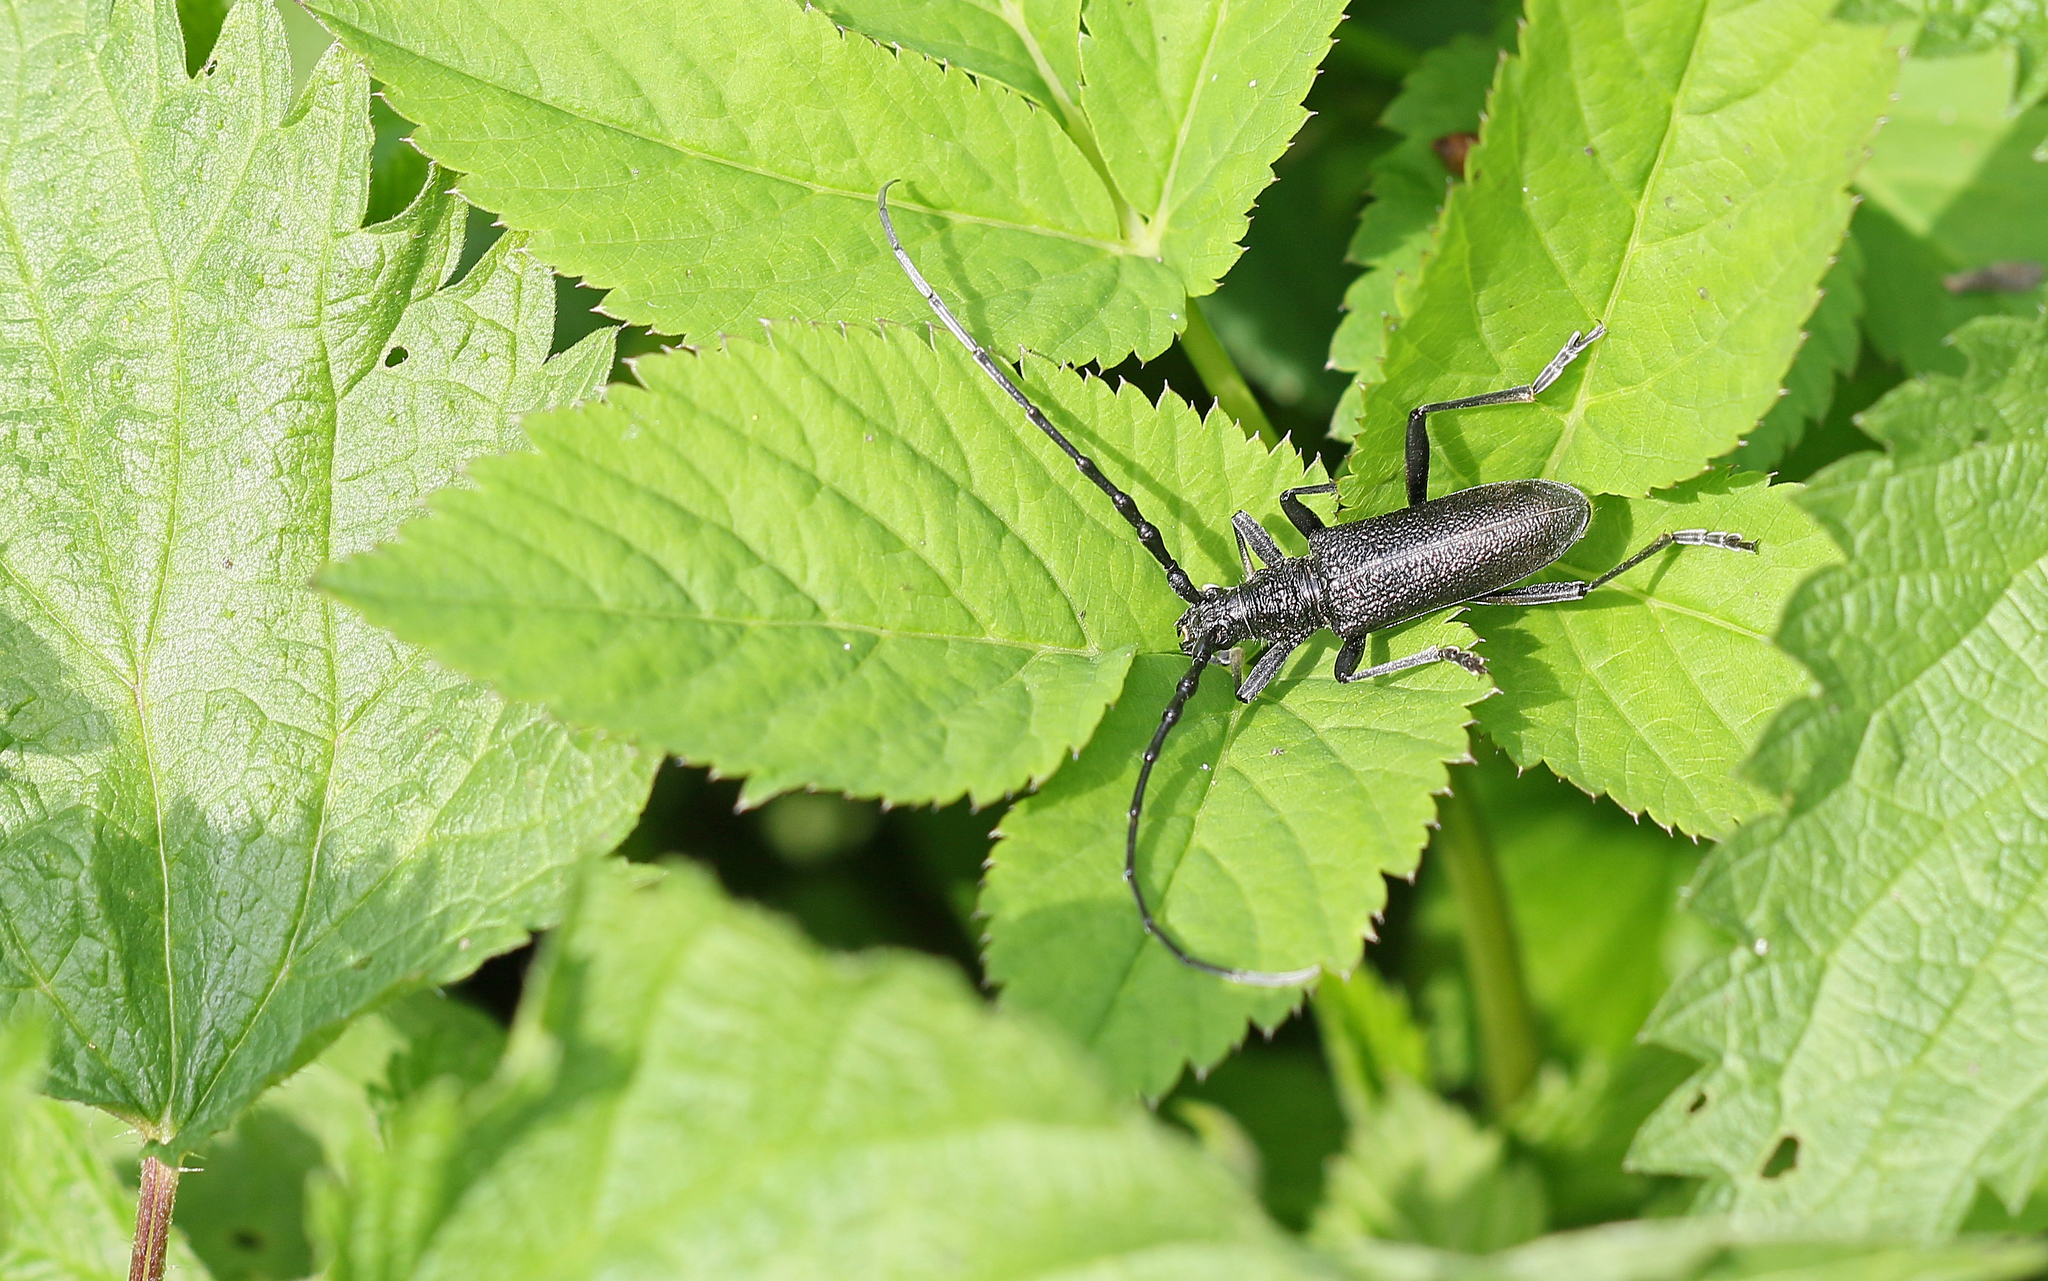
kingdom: Animalia
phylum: Arthropoda
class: Insecta
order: Coleoptera
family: Cerambycidae
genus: Cerambyx
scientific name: Cerambyx scopolii
